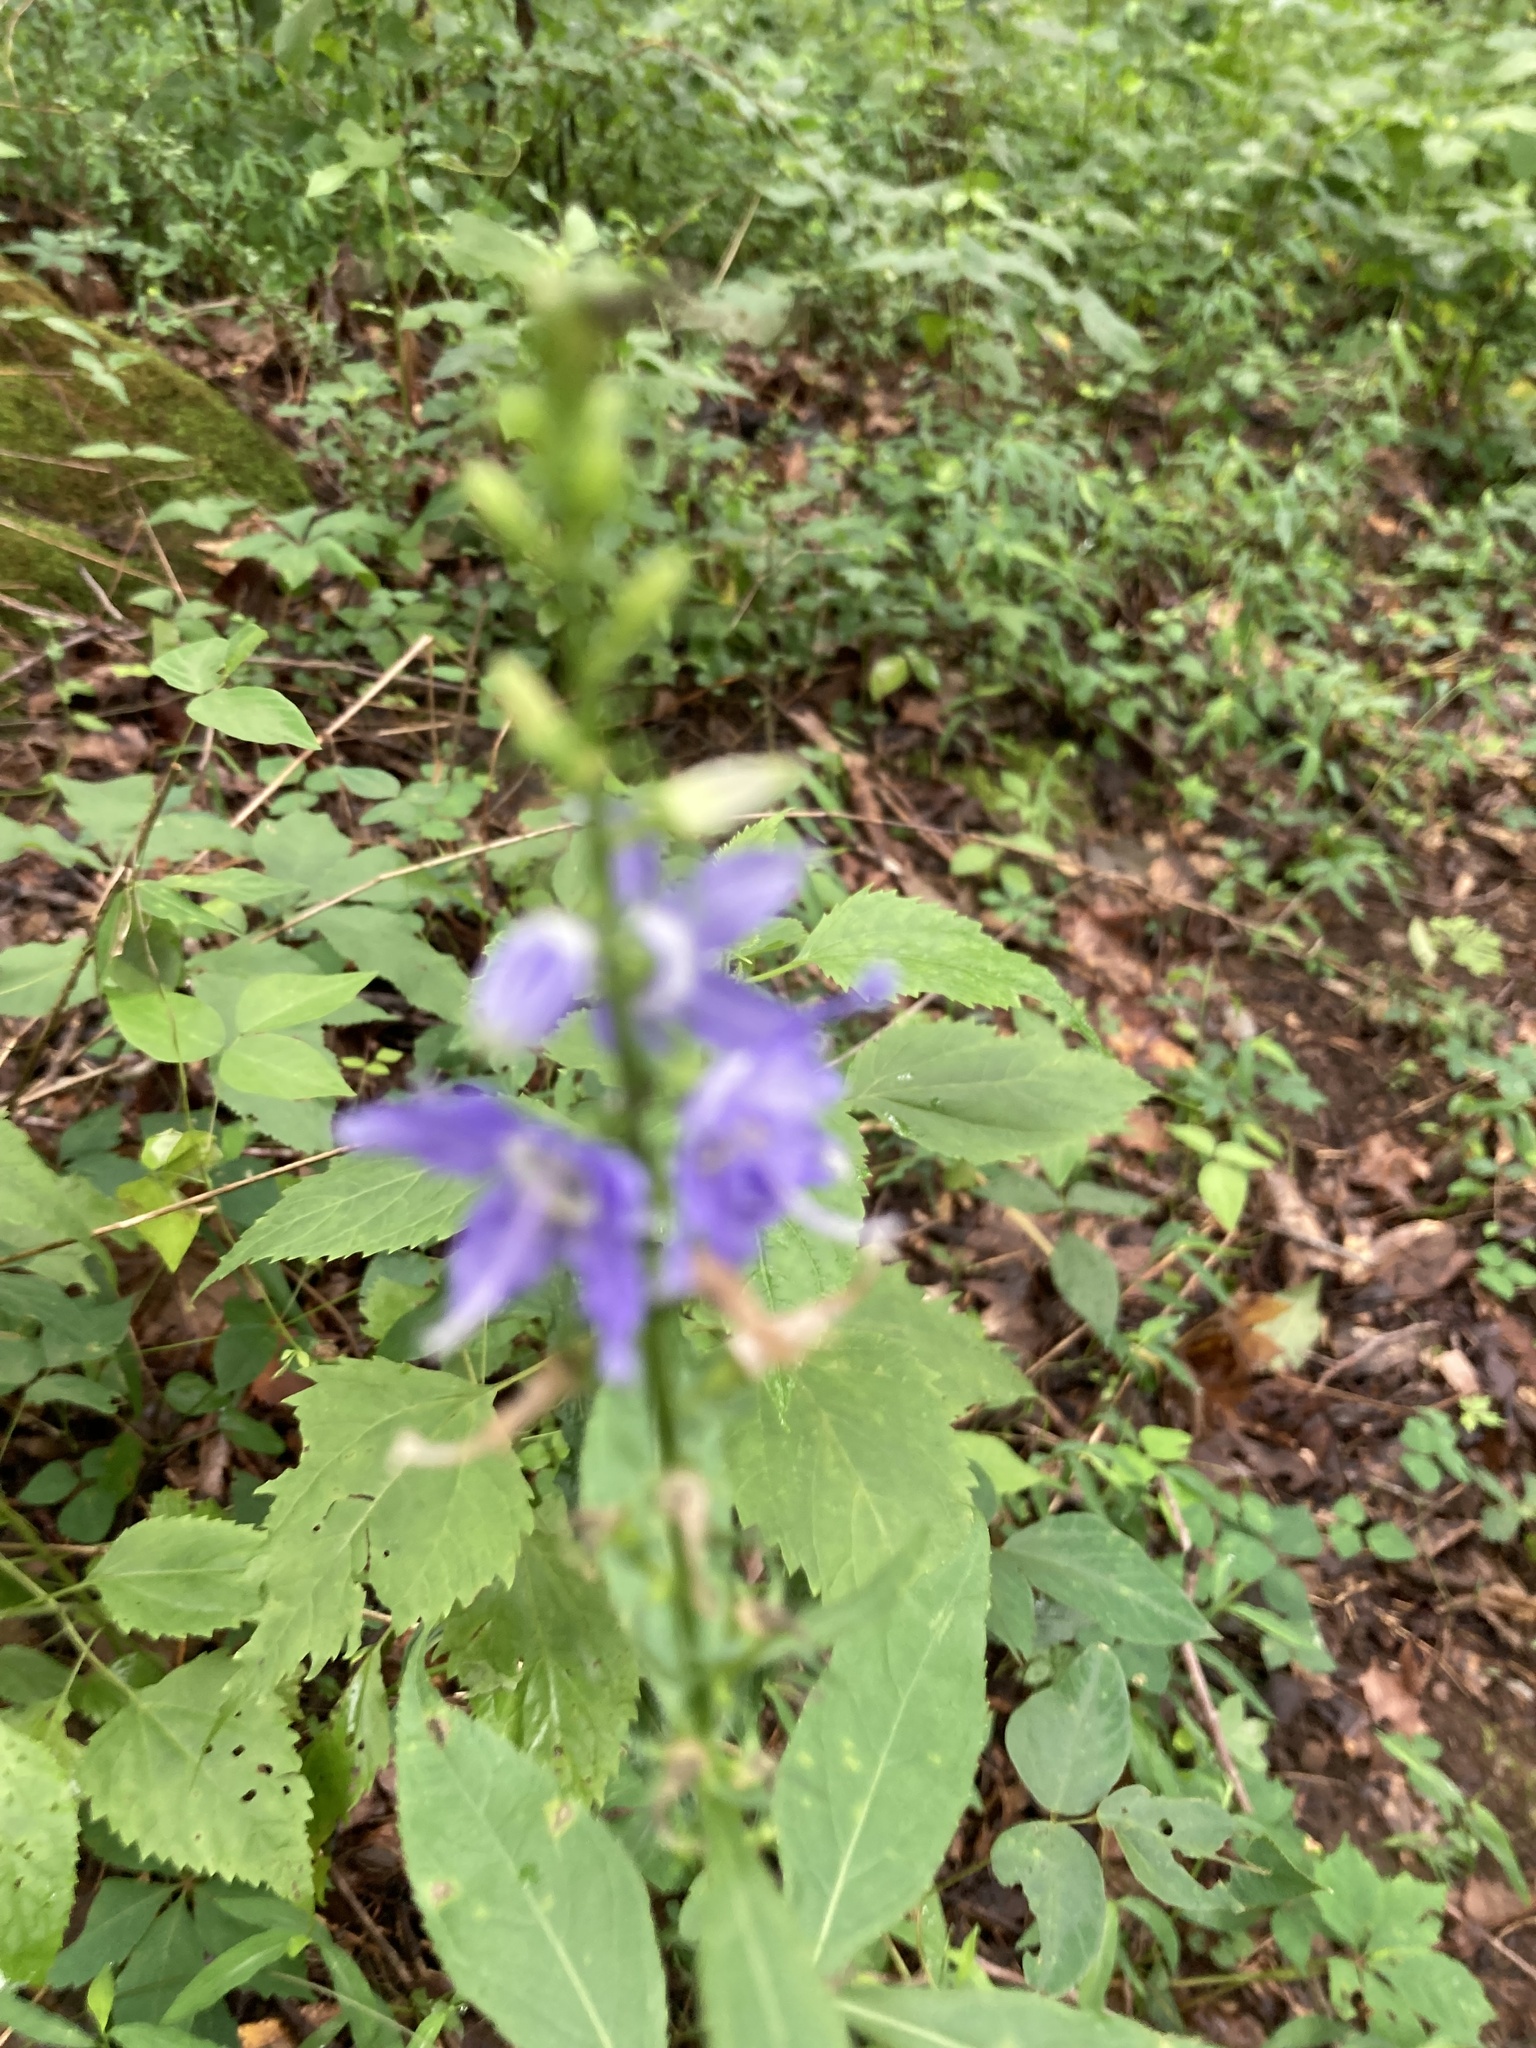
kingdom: Plantae
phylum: Tracheophyta
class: Magnoliopsida
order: Asterales
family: Campanulaceae
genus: Campanulastrum
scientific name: Campanulastrum americanum
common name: American bellflower
